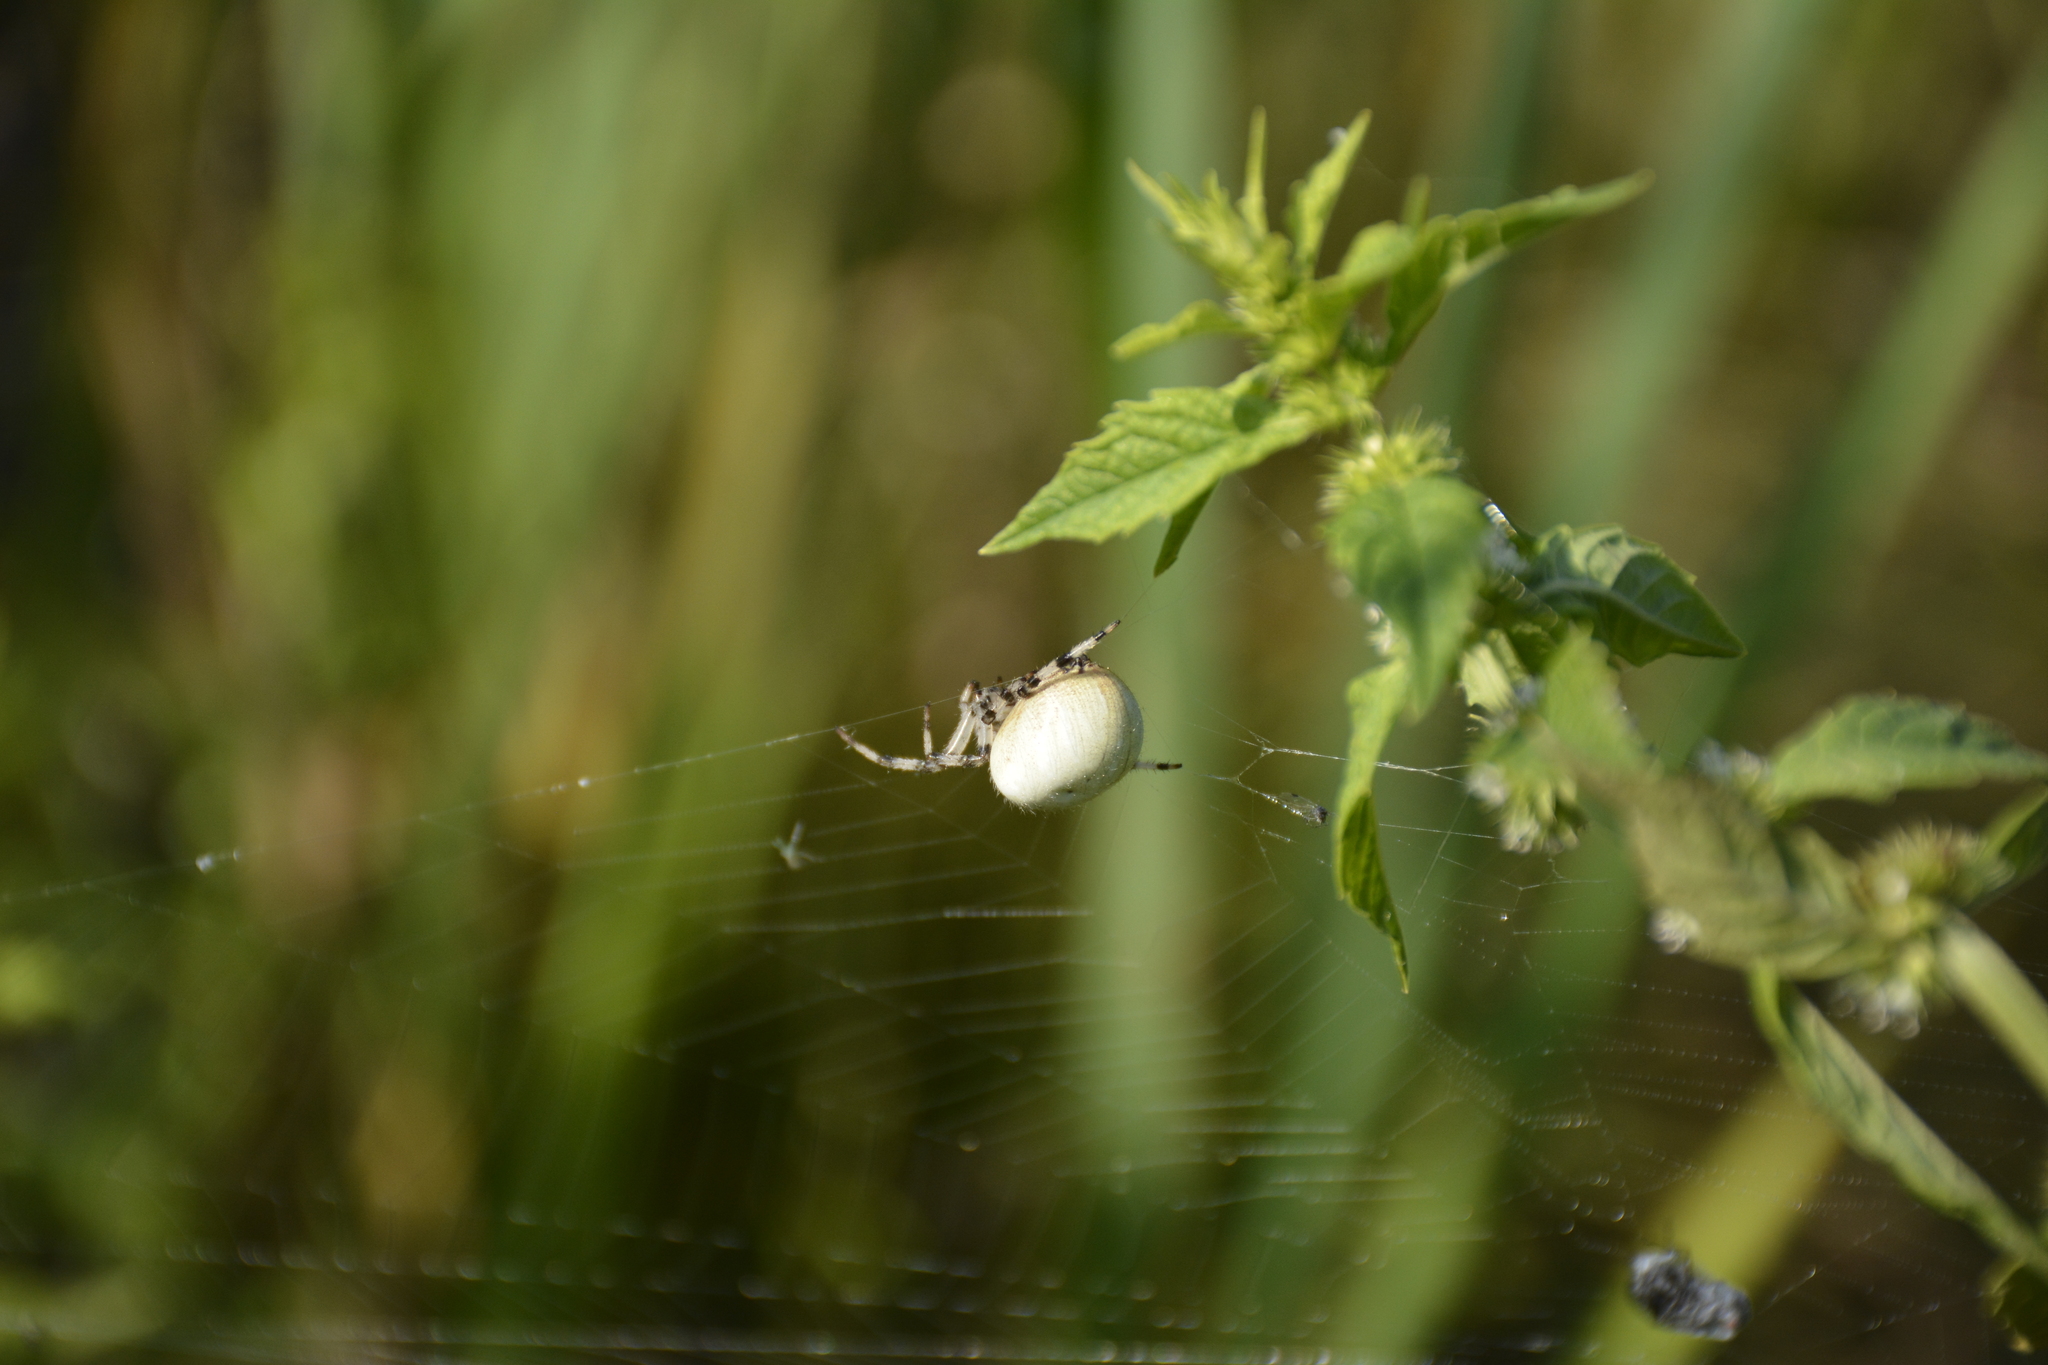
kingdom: Animalia
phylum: Arthropoda
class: Arachnida
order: Araneae
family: Araneidae
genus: Araneus
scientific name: Araneus quadratus
